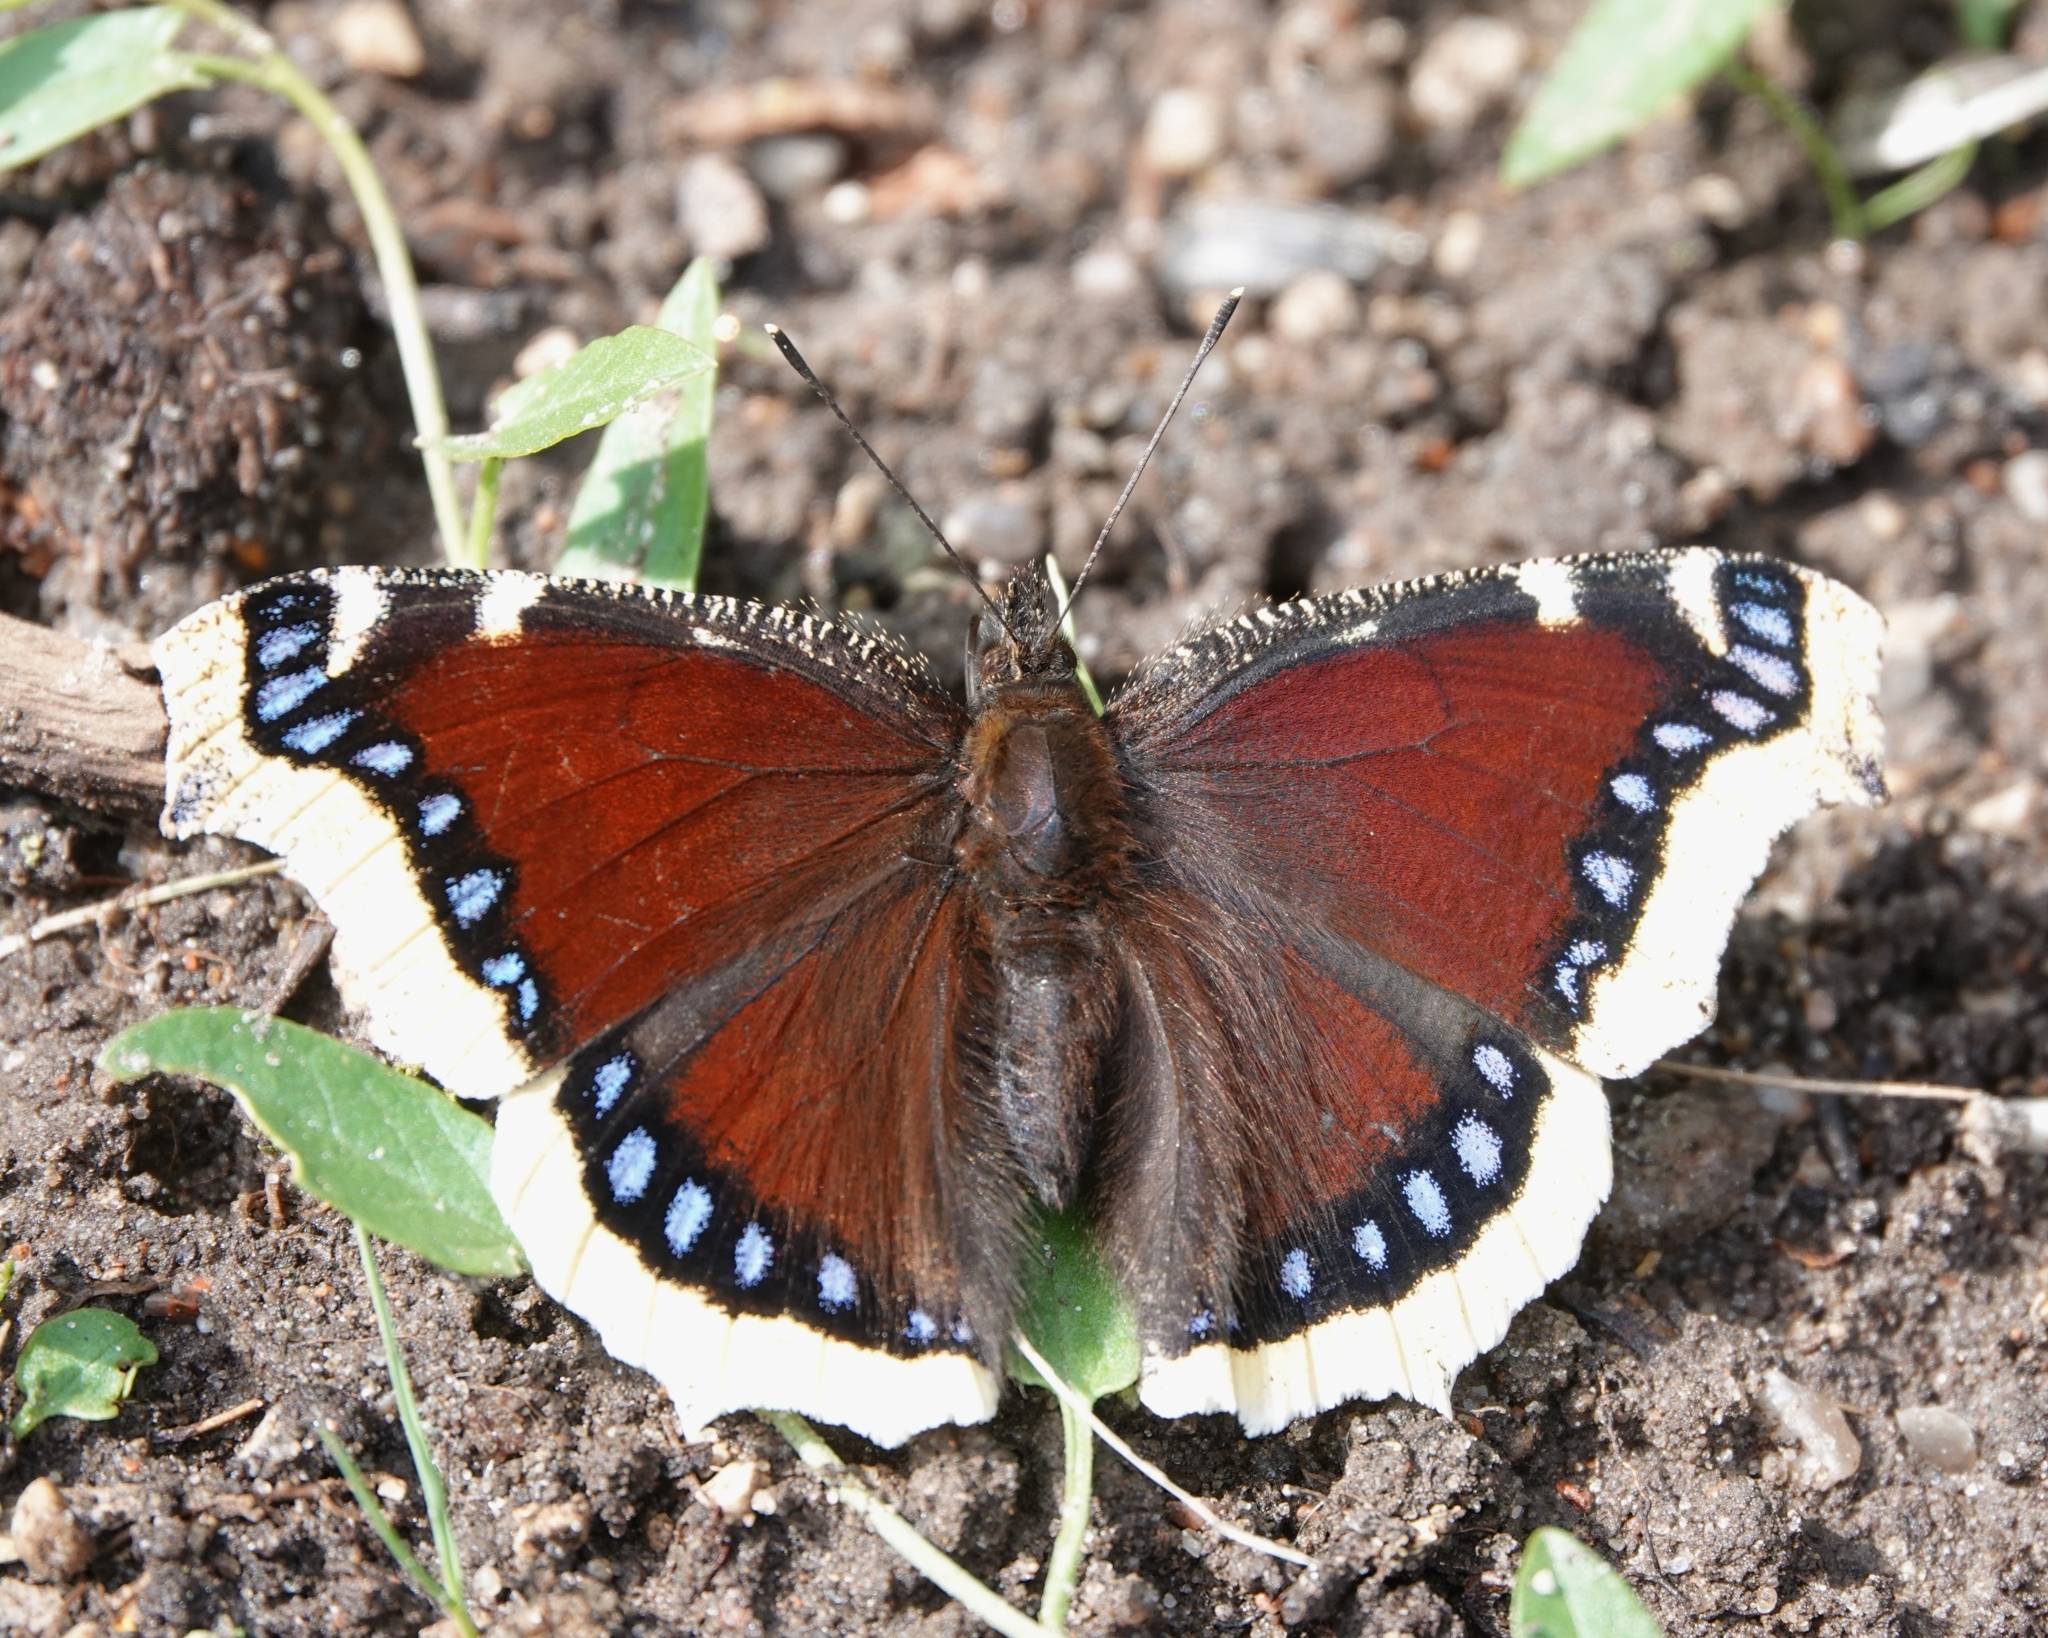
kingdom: Animalia
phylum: Arthropoda
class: Insecta
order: Lepidoptera
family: Nymphalidae
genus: Nymphalis
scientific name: Nymphalis antiopa
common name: Camberwell beauty
